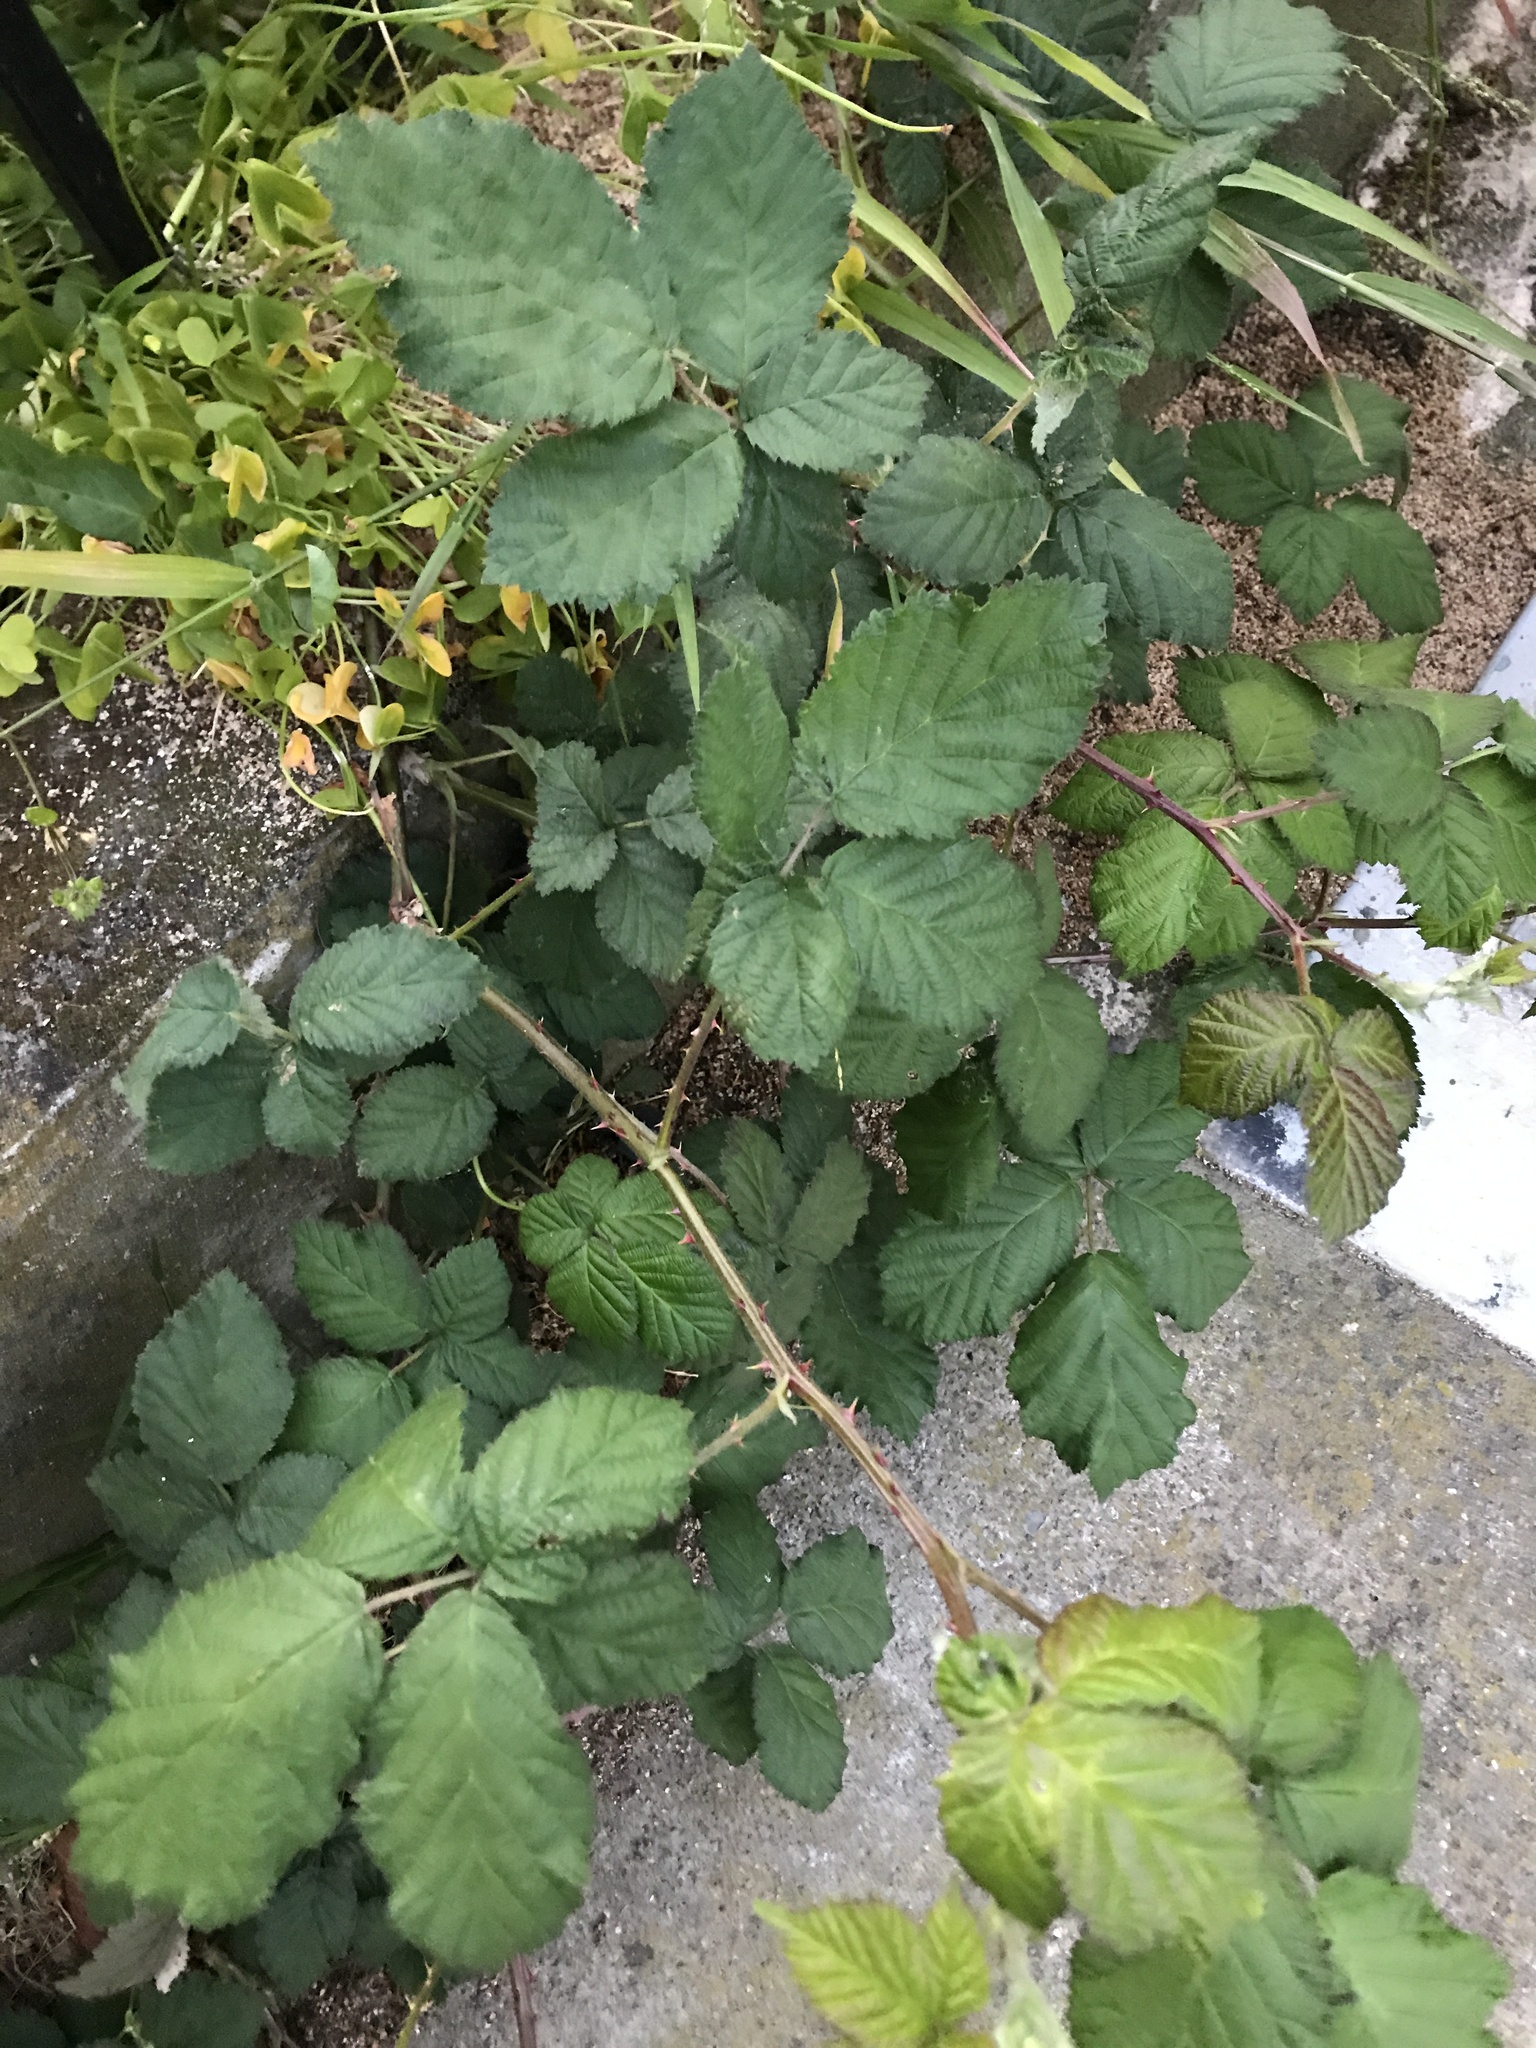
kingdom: Plantae
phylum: Tracheophyta
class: Magnoliopsida
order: Rosales
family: Rosaceae
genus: Rubus
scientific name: Rubus armeniacus
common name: Himalayan blackberry
